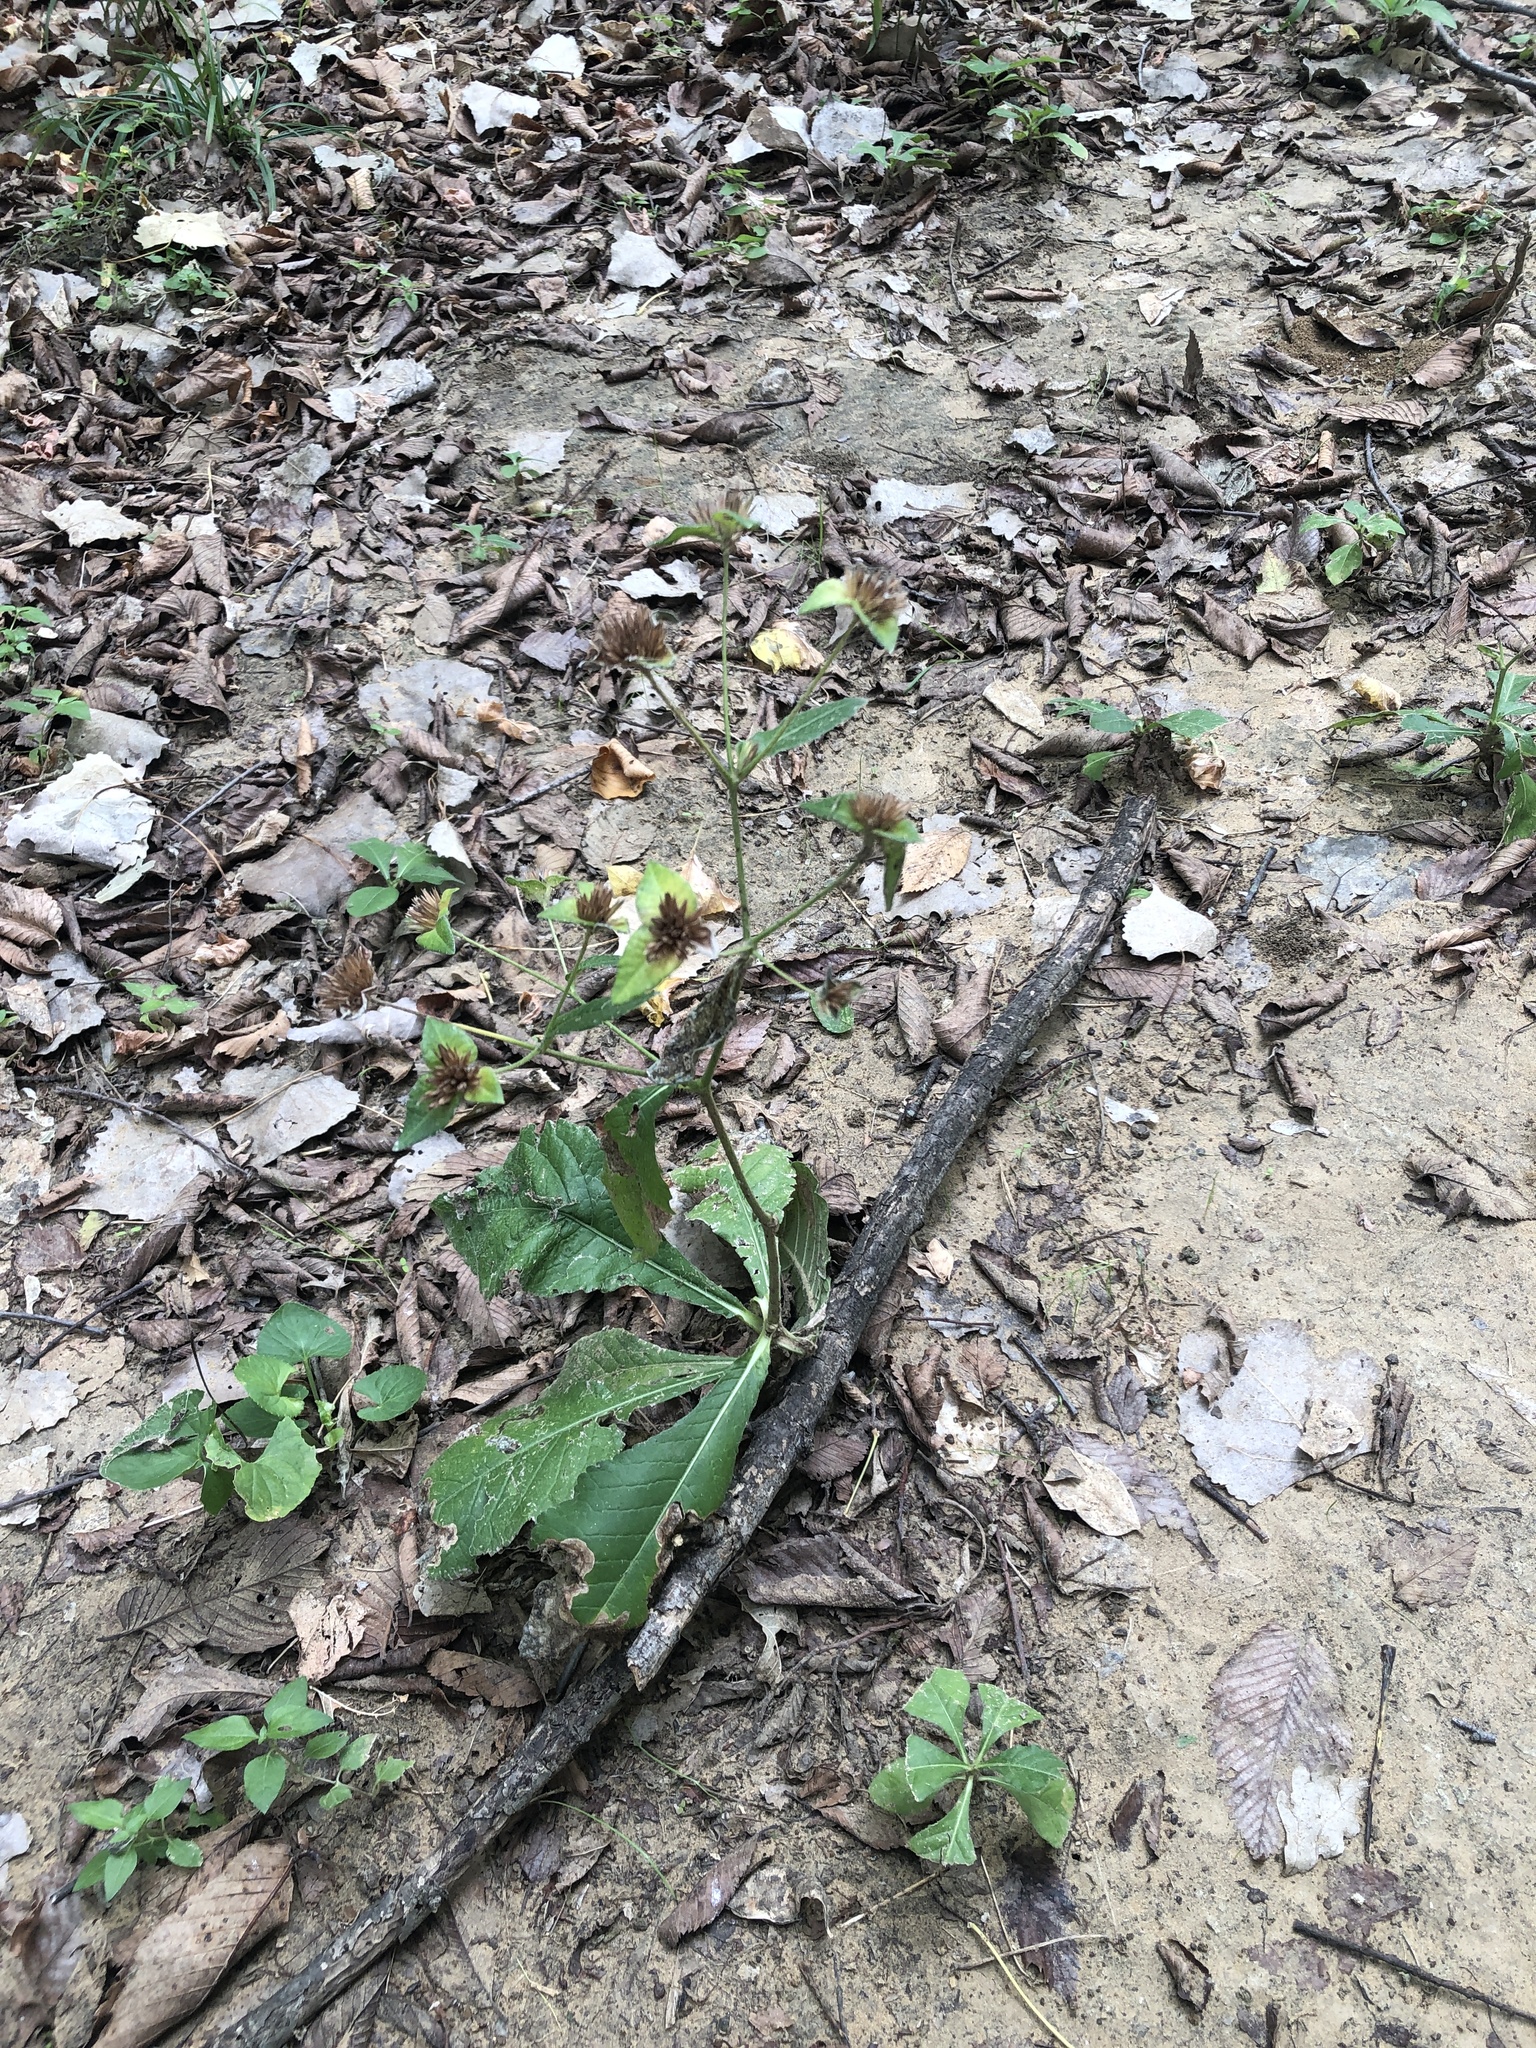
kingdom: Plantae
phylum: Tracheophyta
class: Magnoliopsida
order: Asterales
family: Asteraceae
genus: Elephantopus
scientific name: Elephantopus carolinianus
